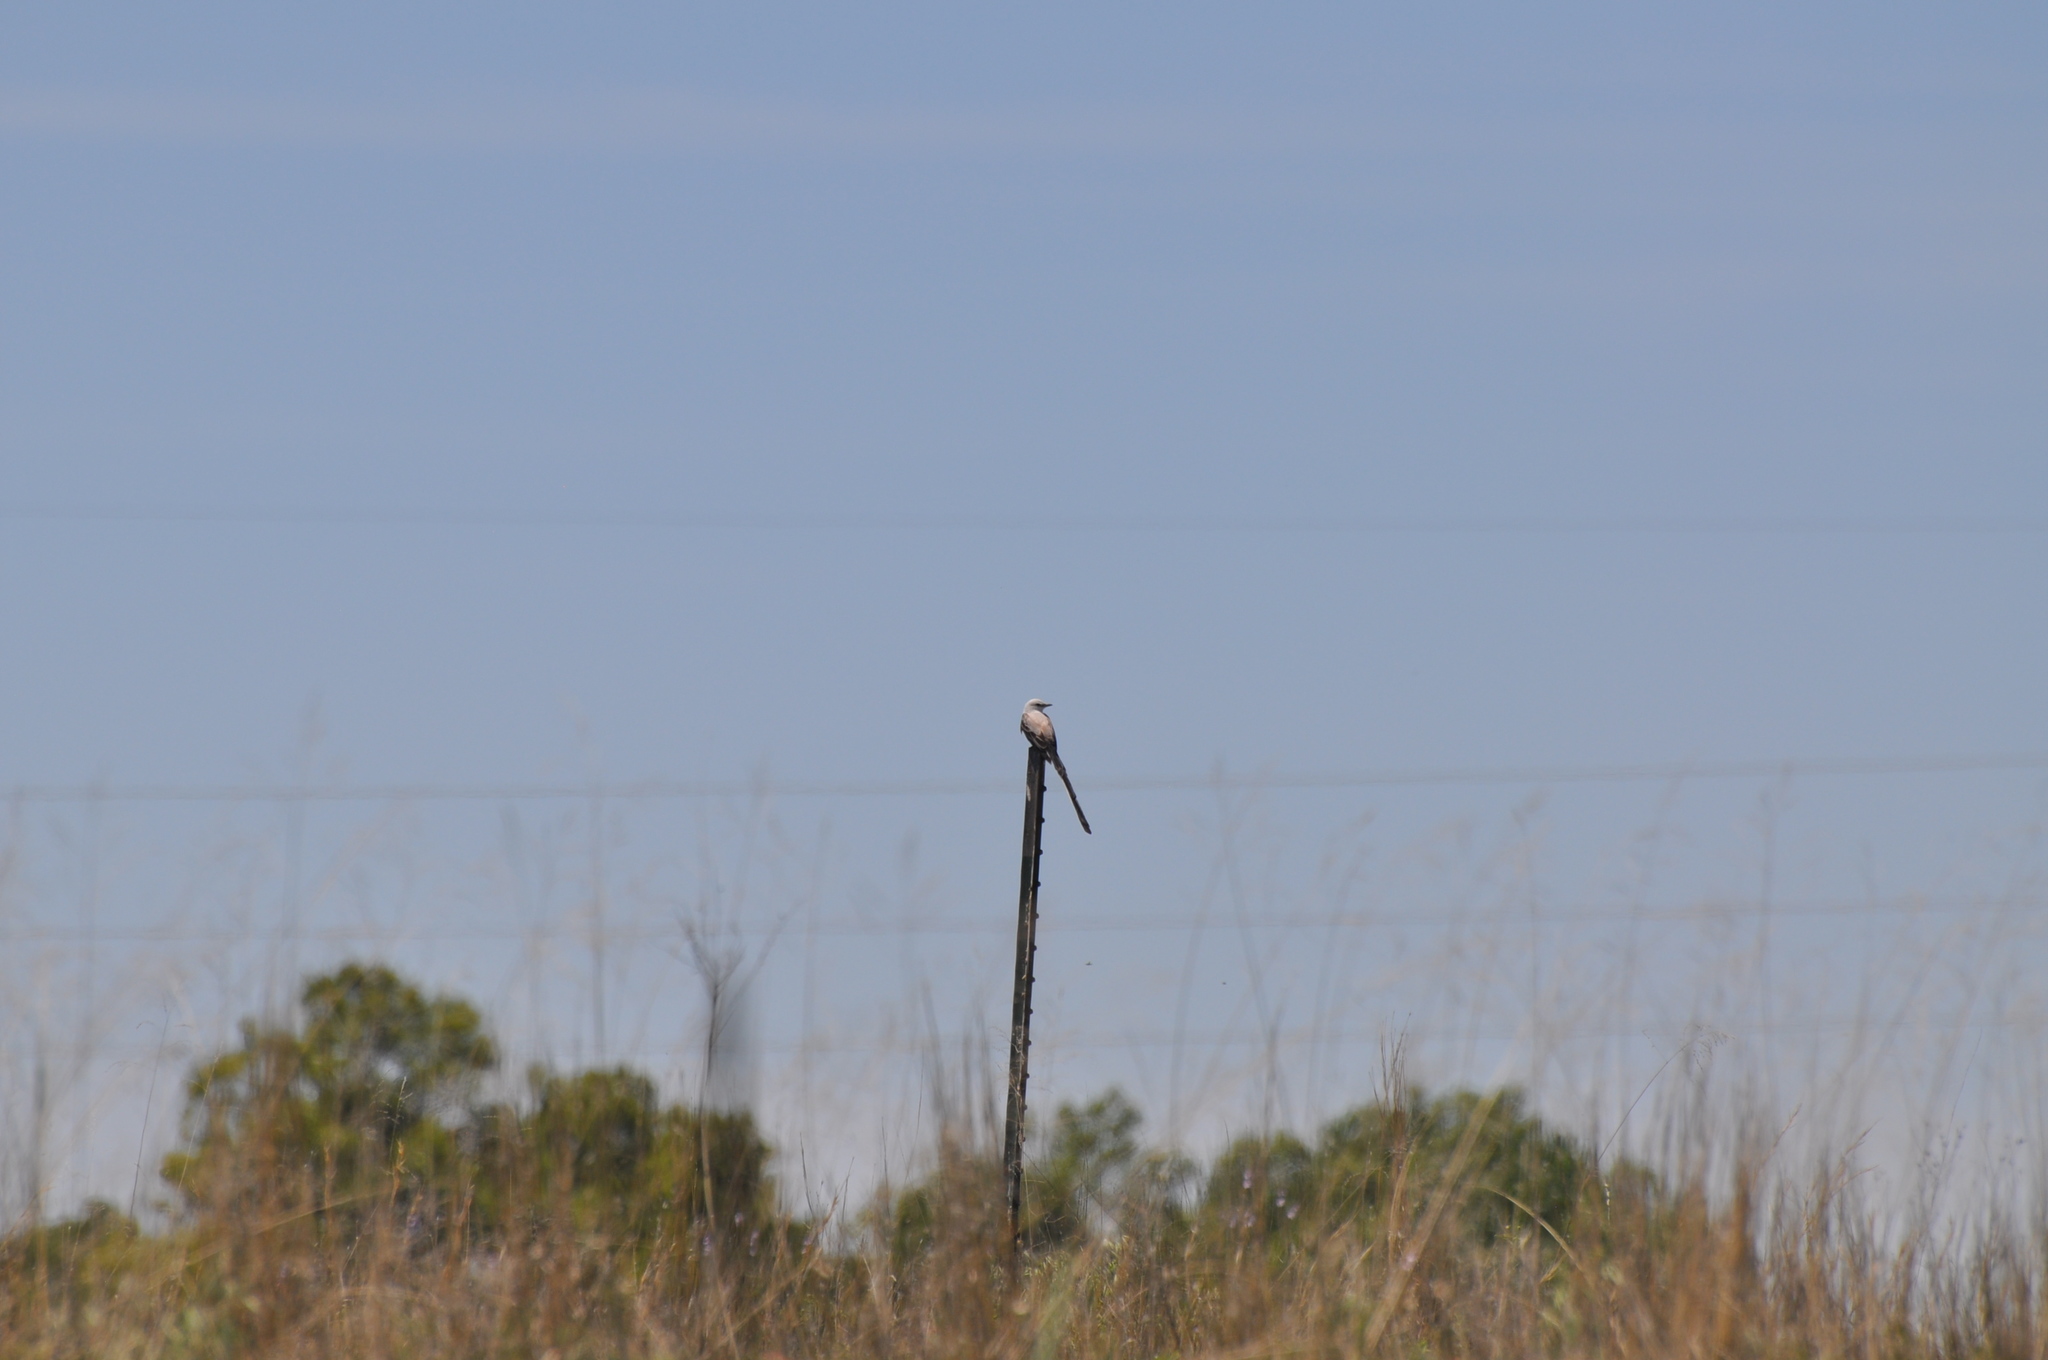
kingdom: Animalia
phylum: Chordata
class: Aves
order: Passeriformes
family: Tyrannidae
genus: Tyrannus
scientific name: Tyrannus forficatus
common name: Scissor-tailed flycatcher
